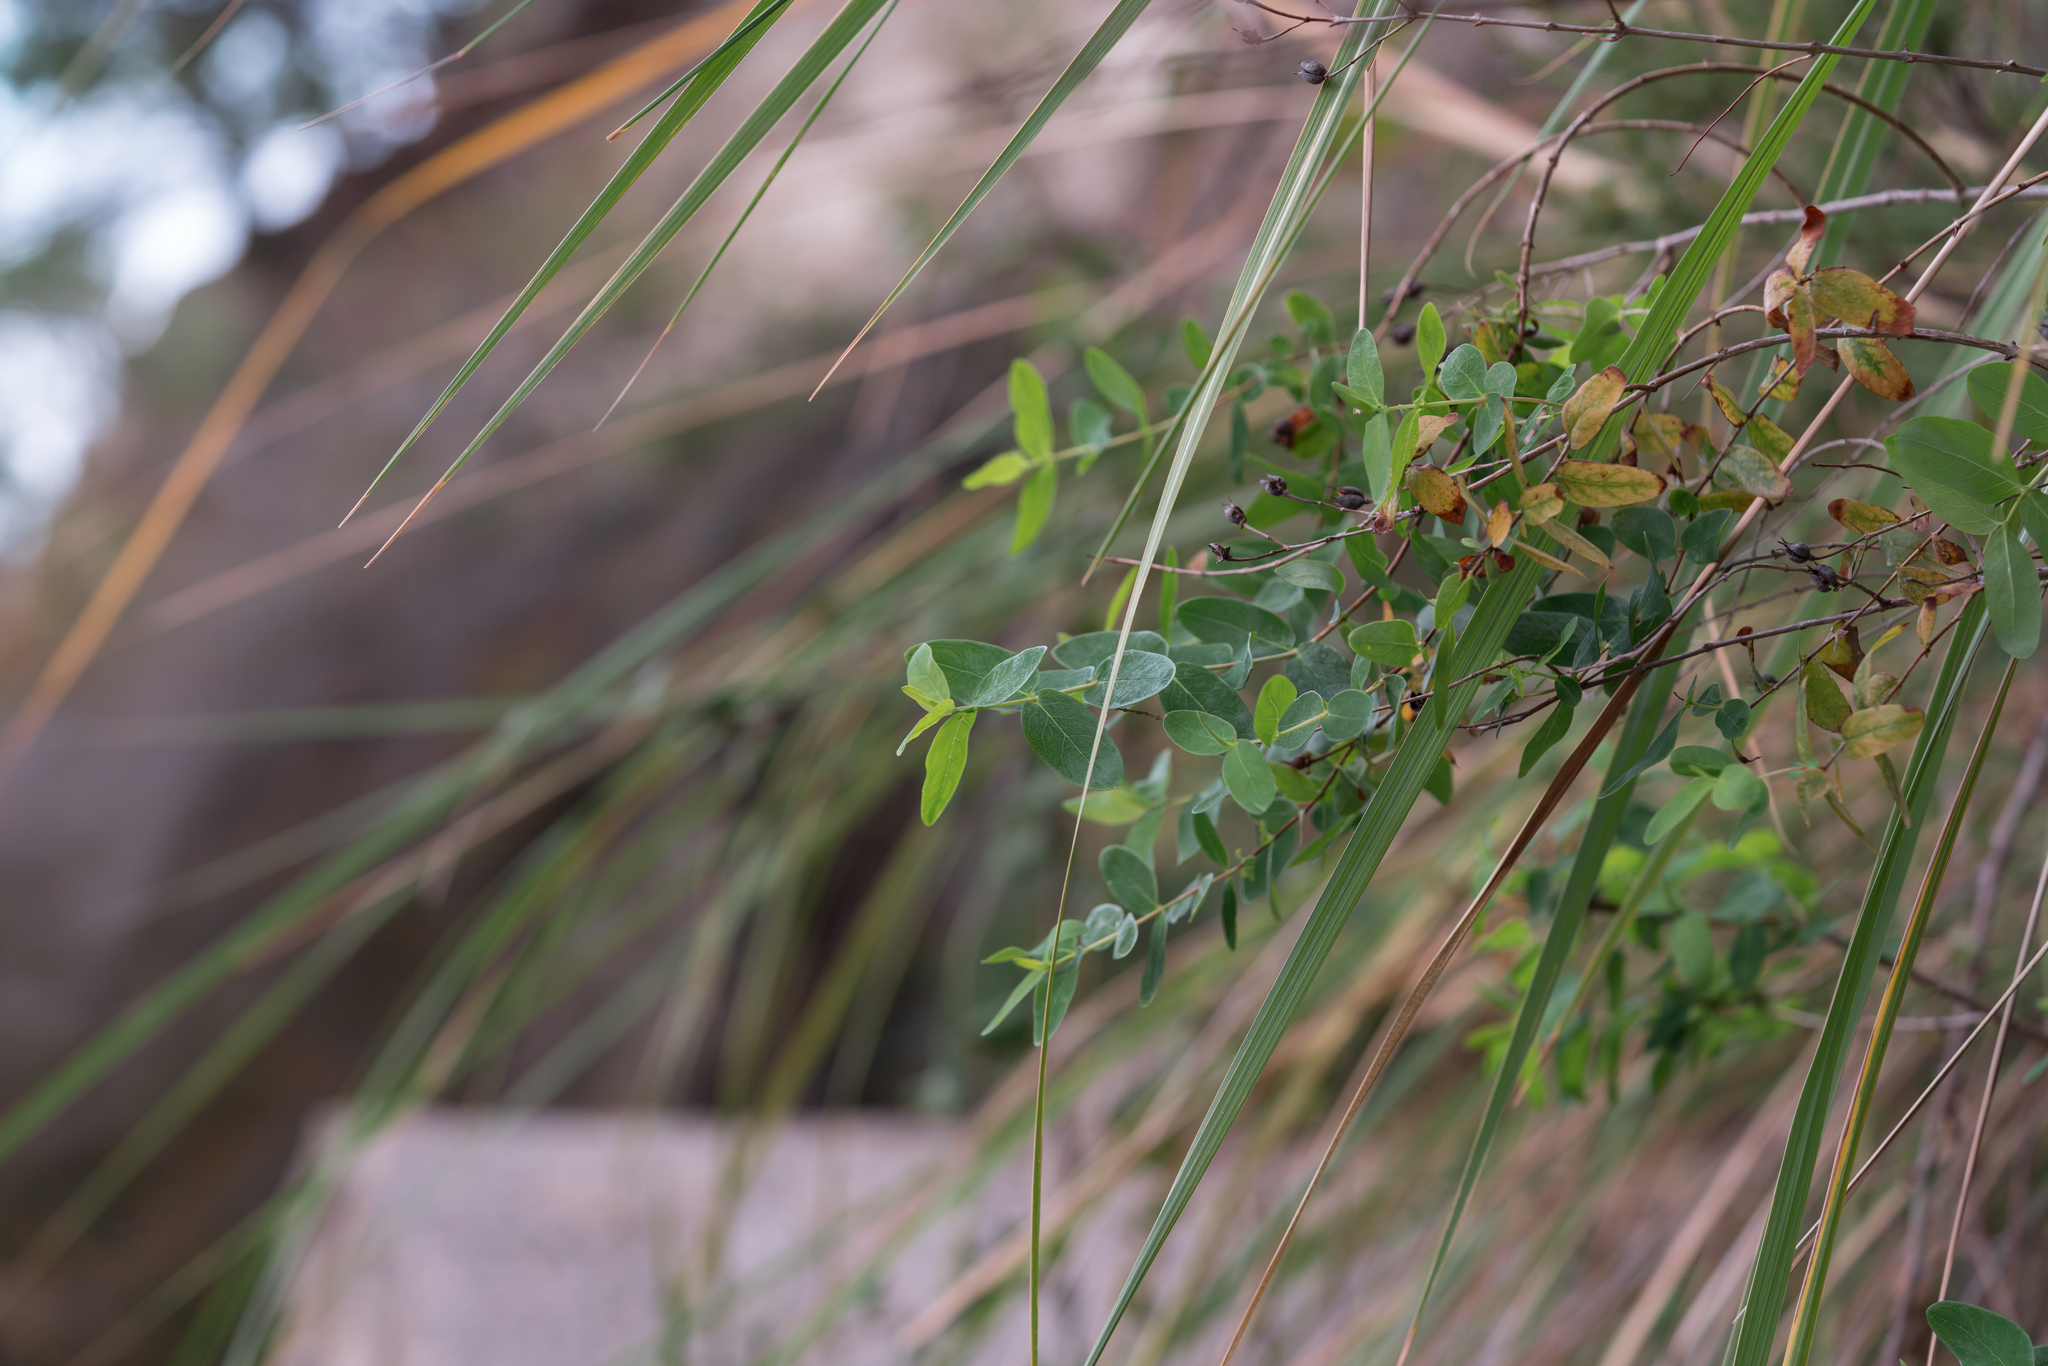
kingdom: Plantae
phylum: Tracheophyta
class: Magnoliopsida
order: Malpighiales
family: Hypericaceae
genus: Hypericum
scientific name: Hypericum hircinum
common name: Stinking tutsan
